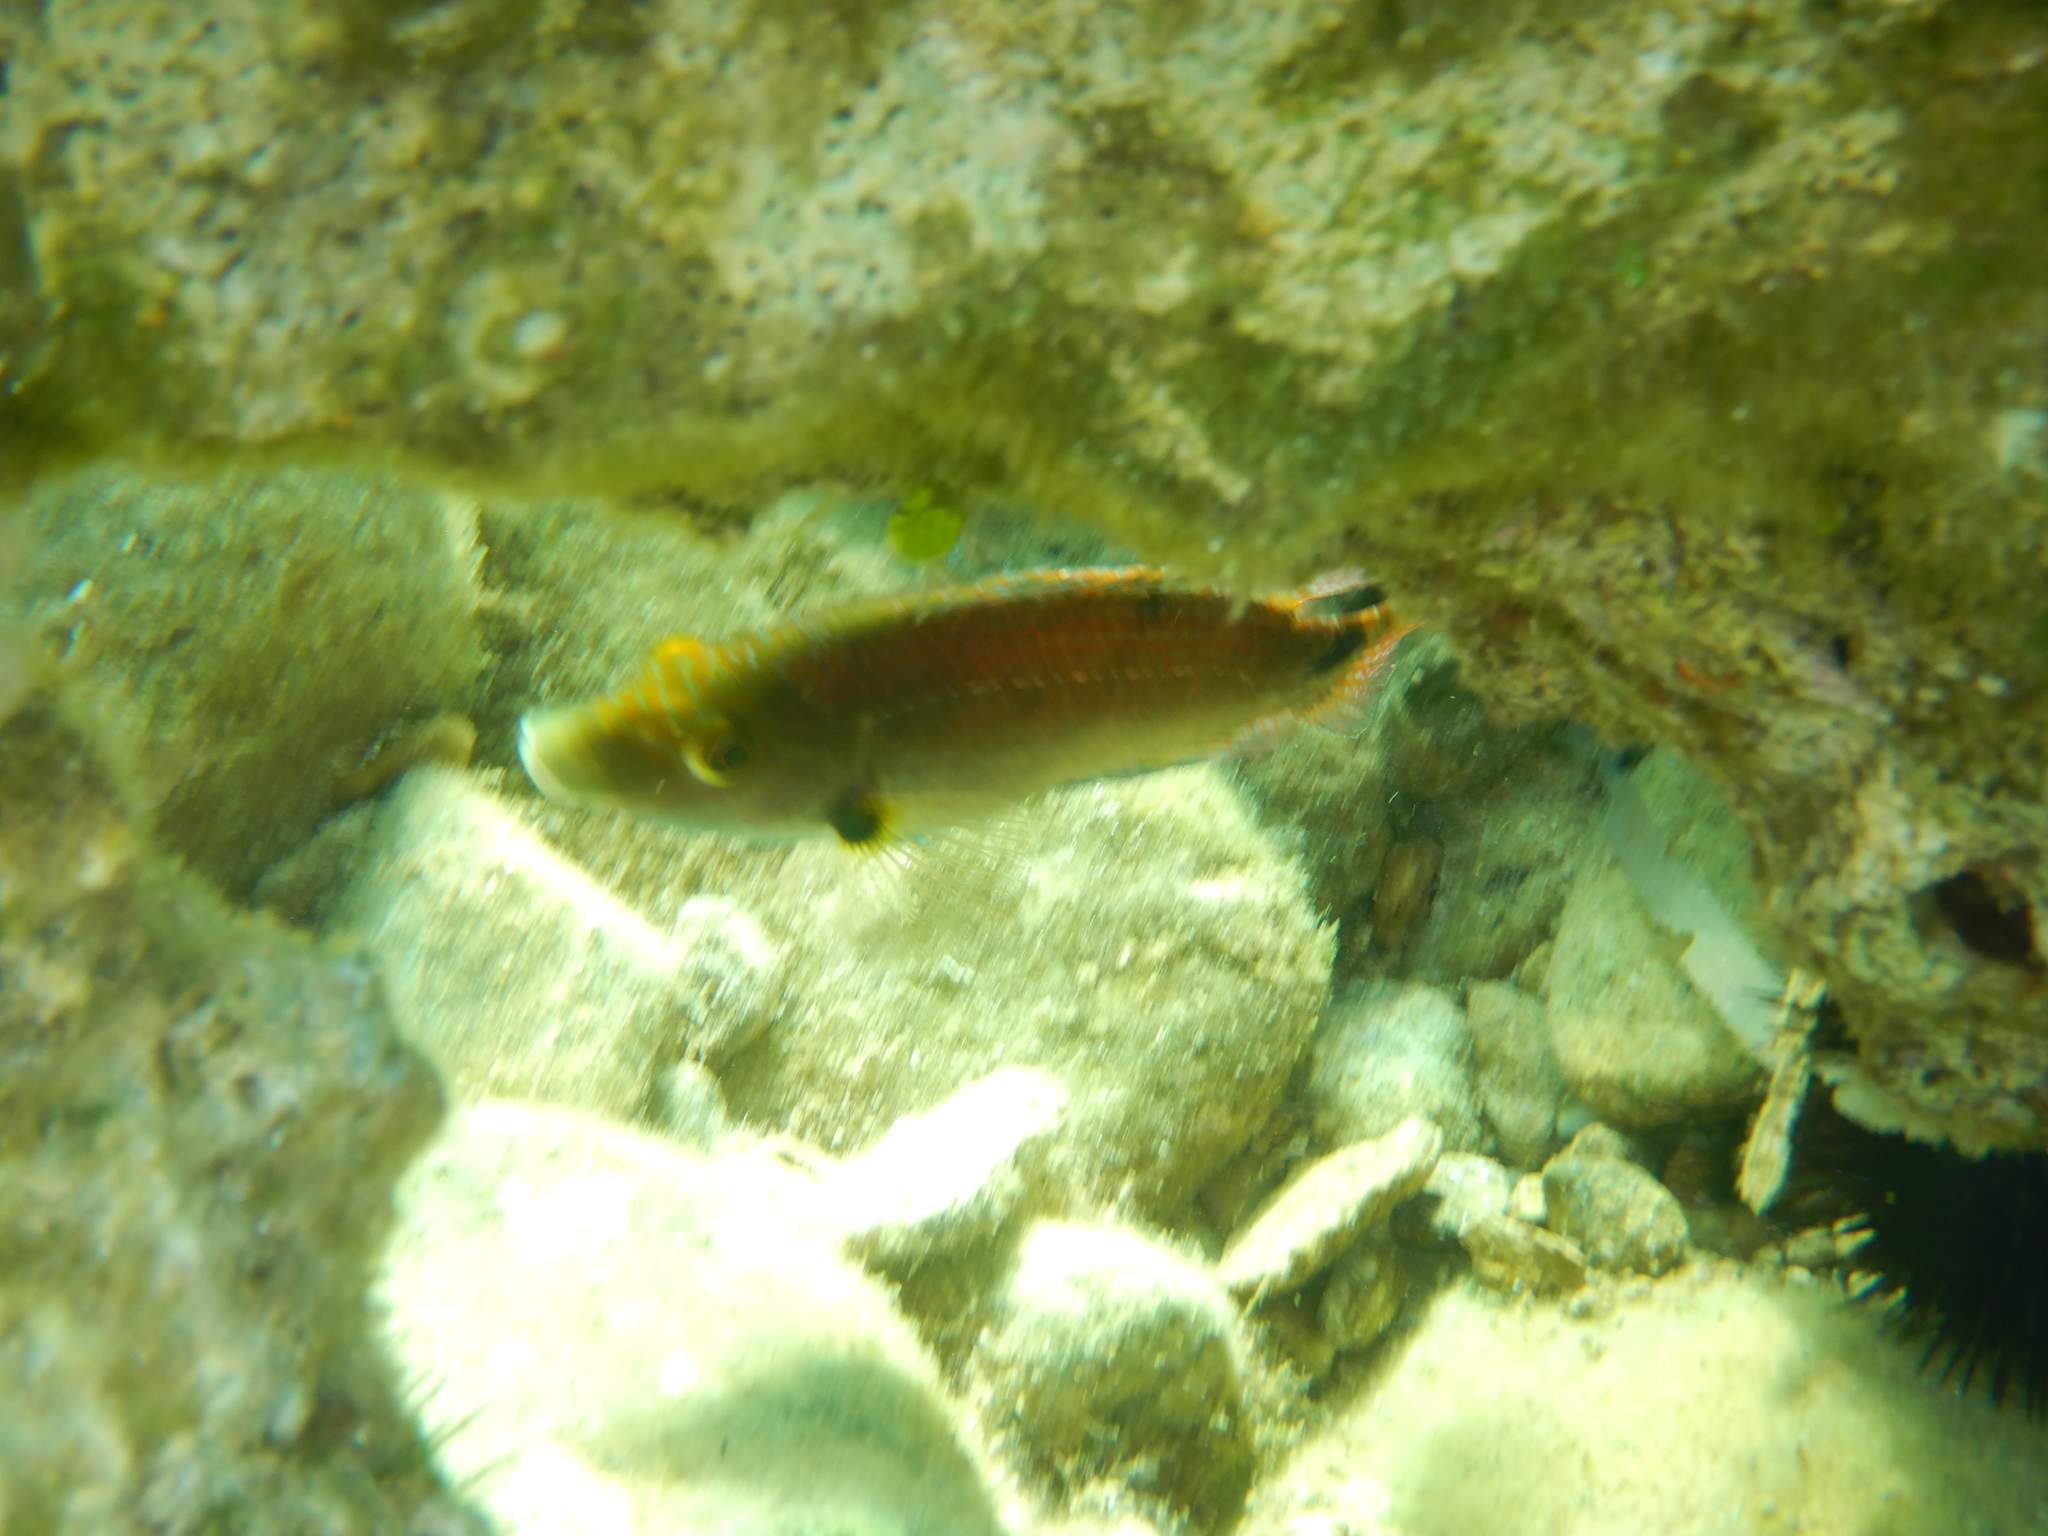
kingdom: Animalia
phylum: Chordata
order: Perciformes
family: Labridae
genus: Symphodus
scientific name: Symphodus mediterraneus
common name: Axillary wrasse
